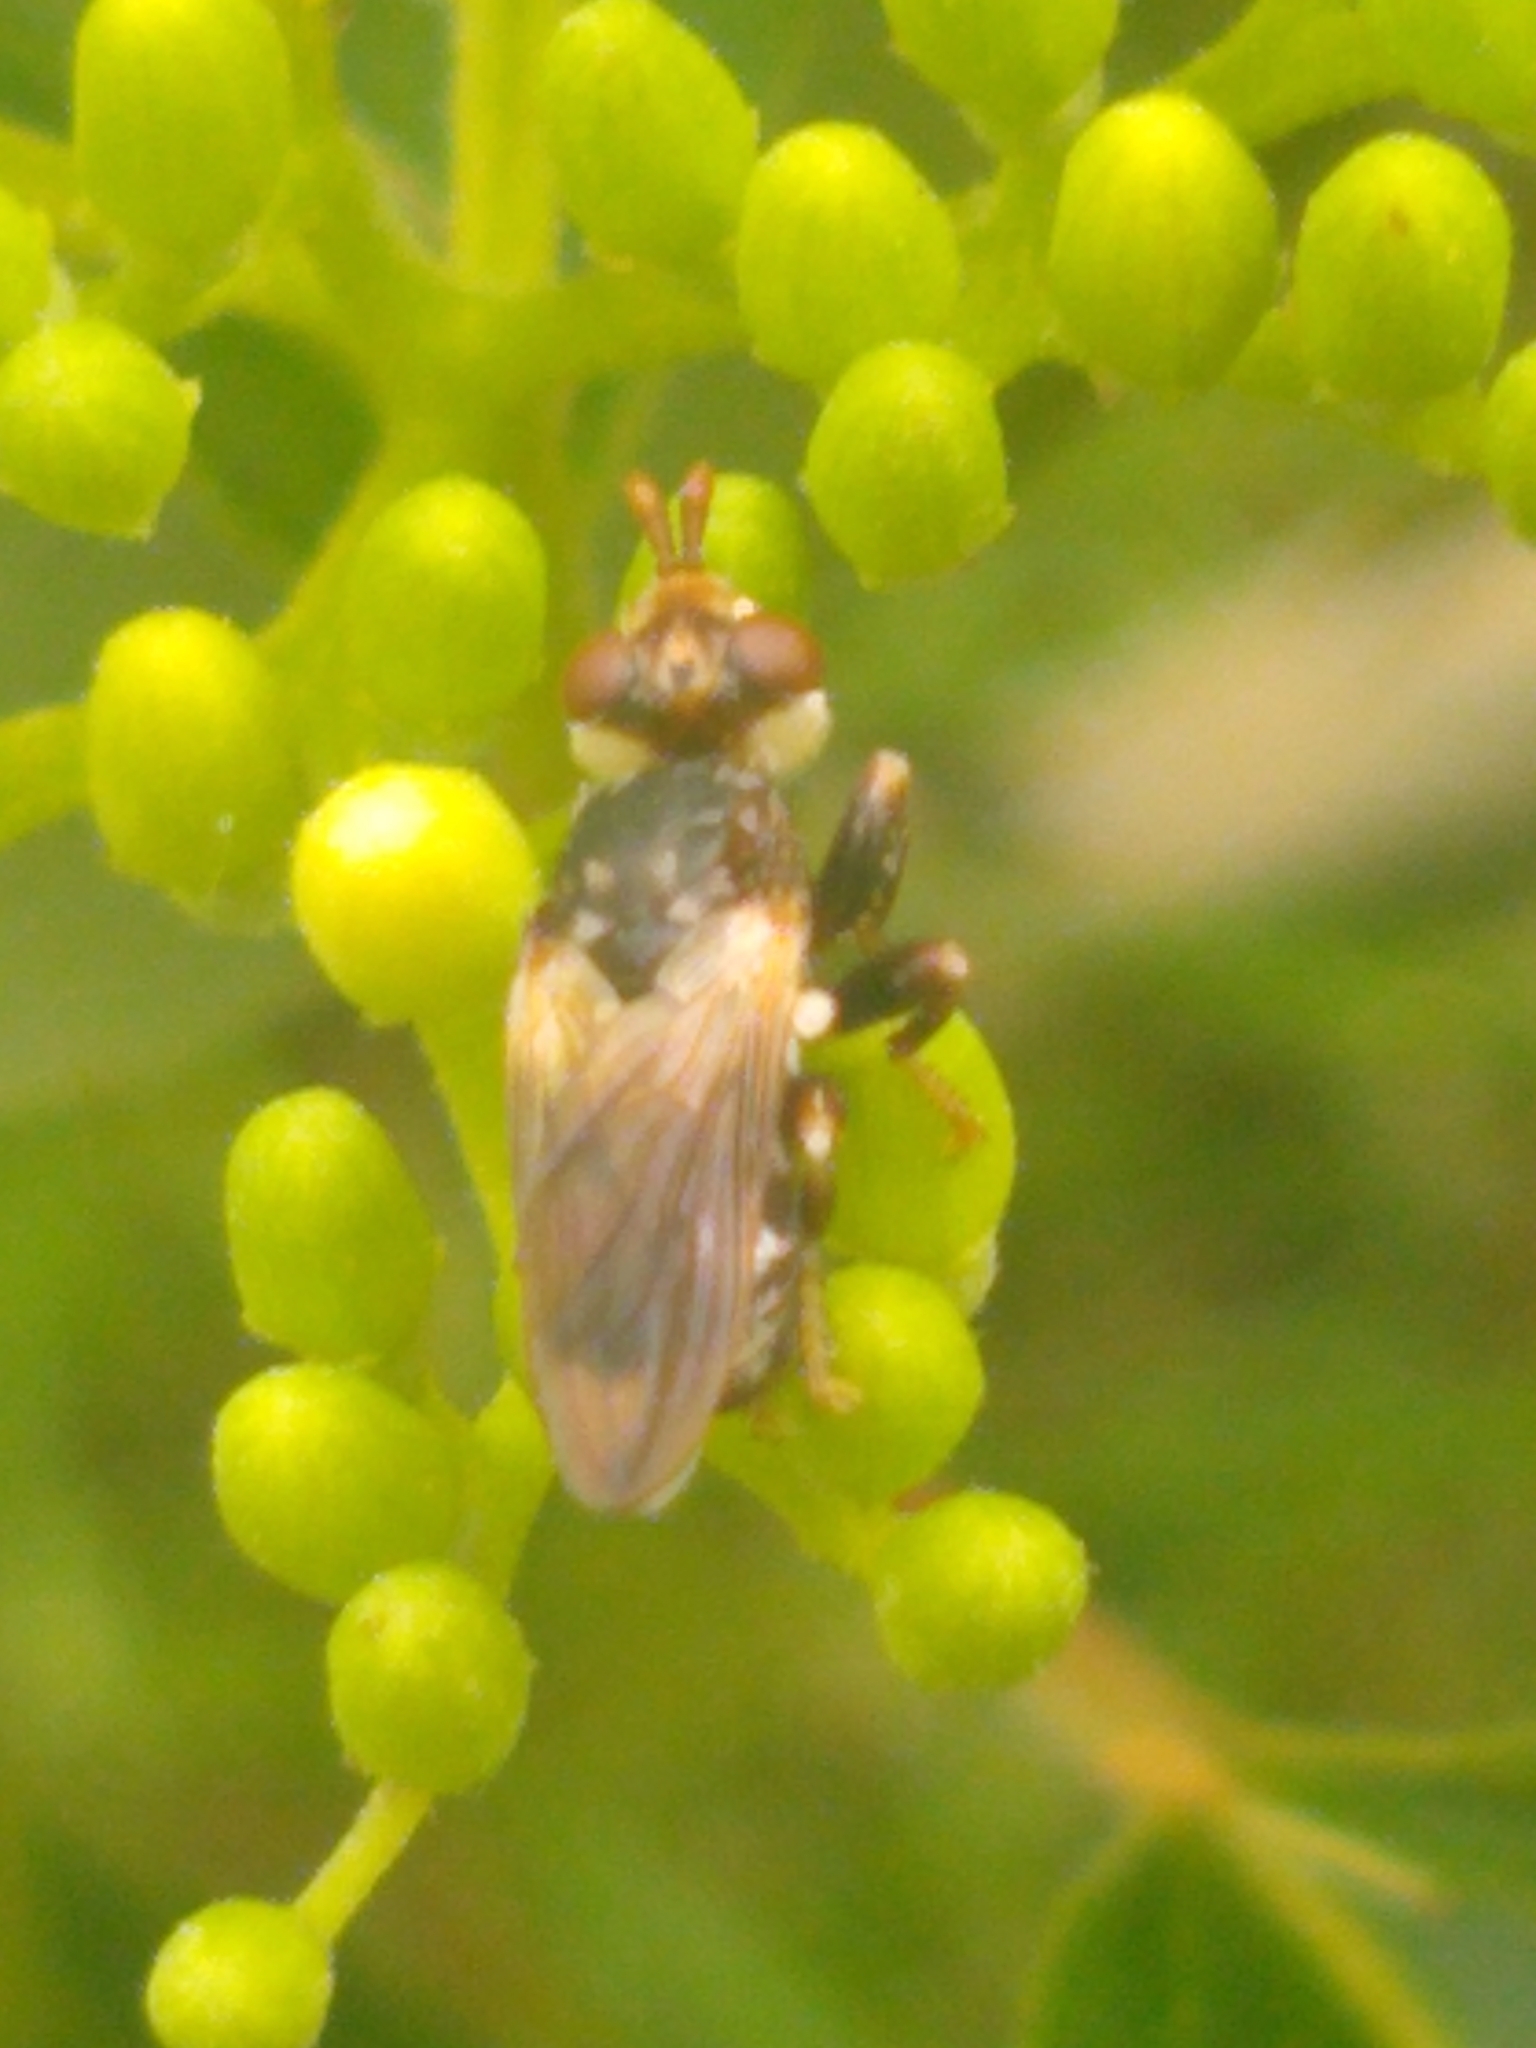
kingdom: Animalia
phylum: Arthropoda
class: Insecta
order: Diptera
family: Conopidae
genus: Myopa
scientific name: Myopa vesiculosa
